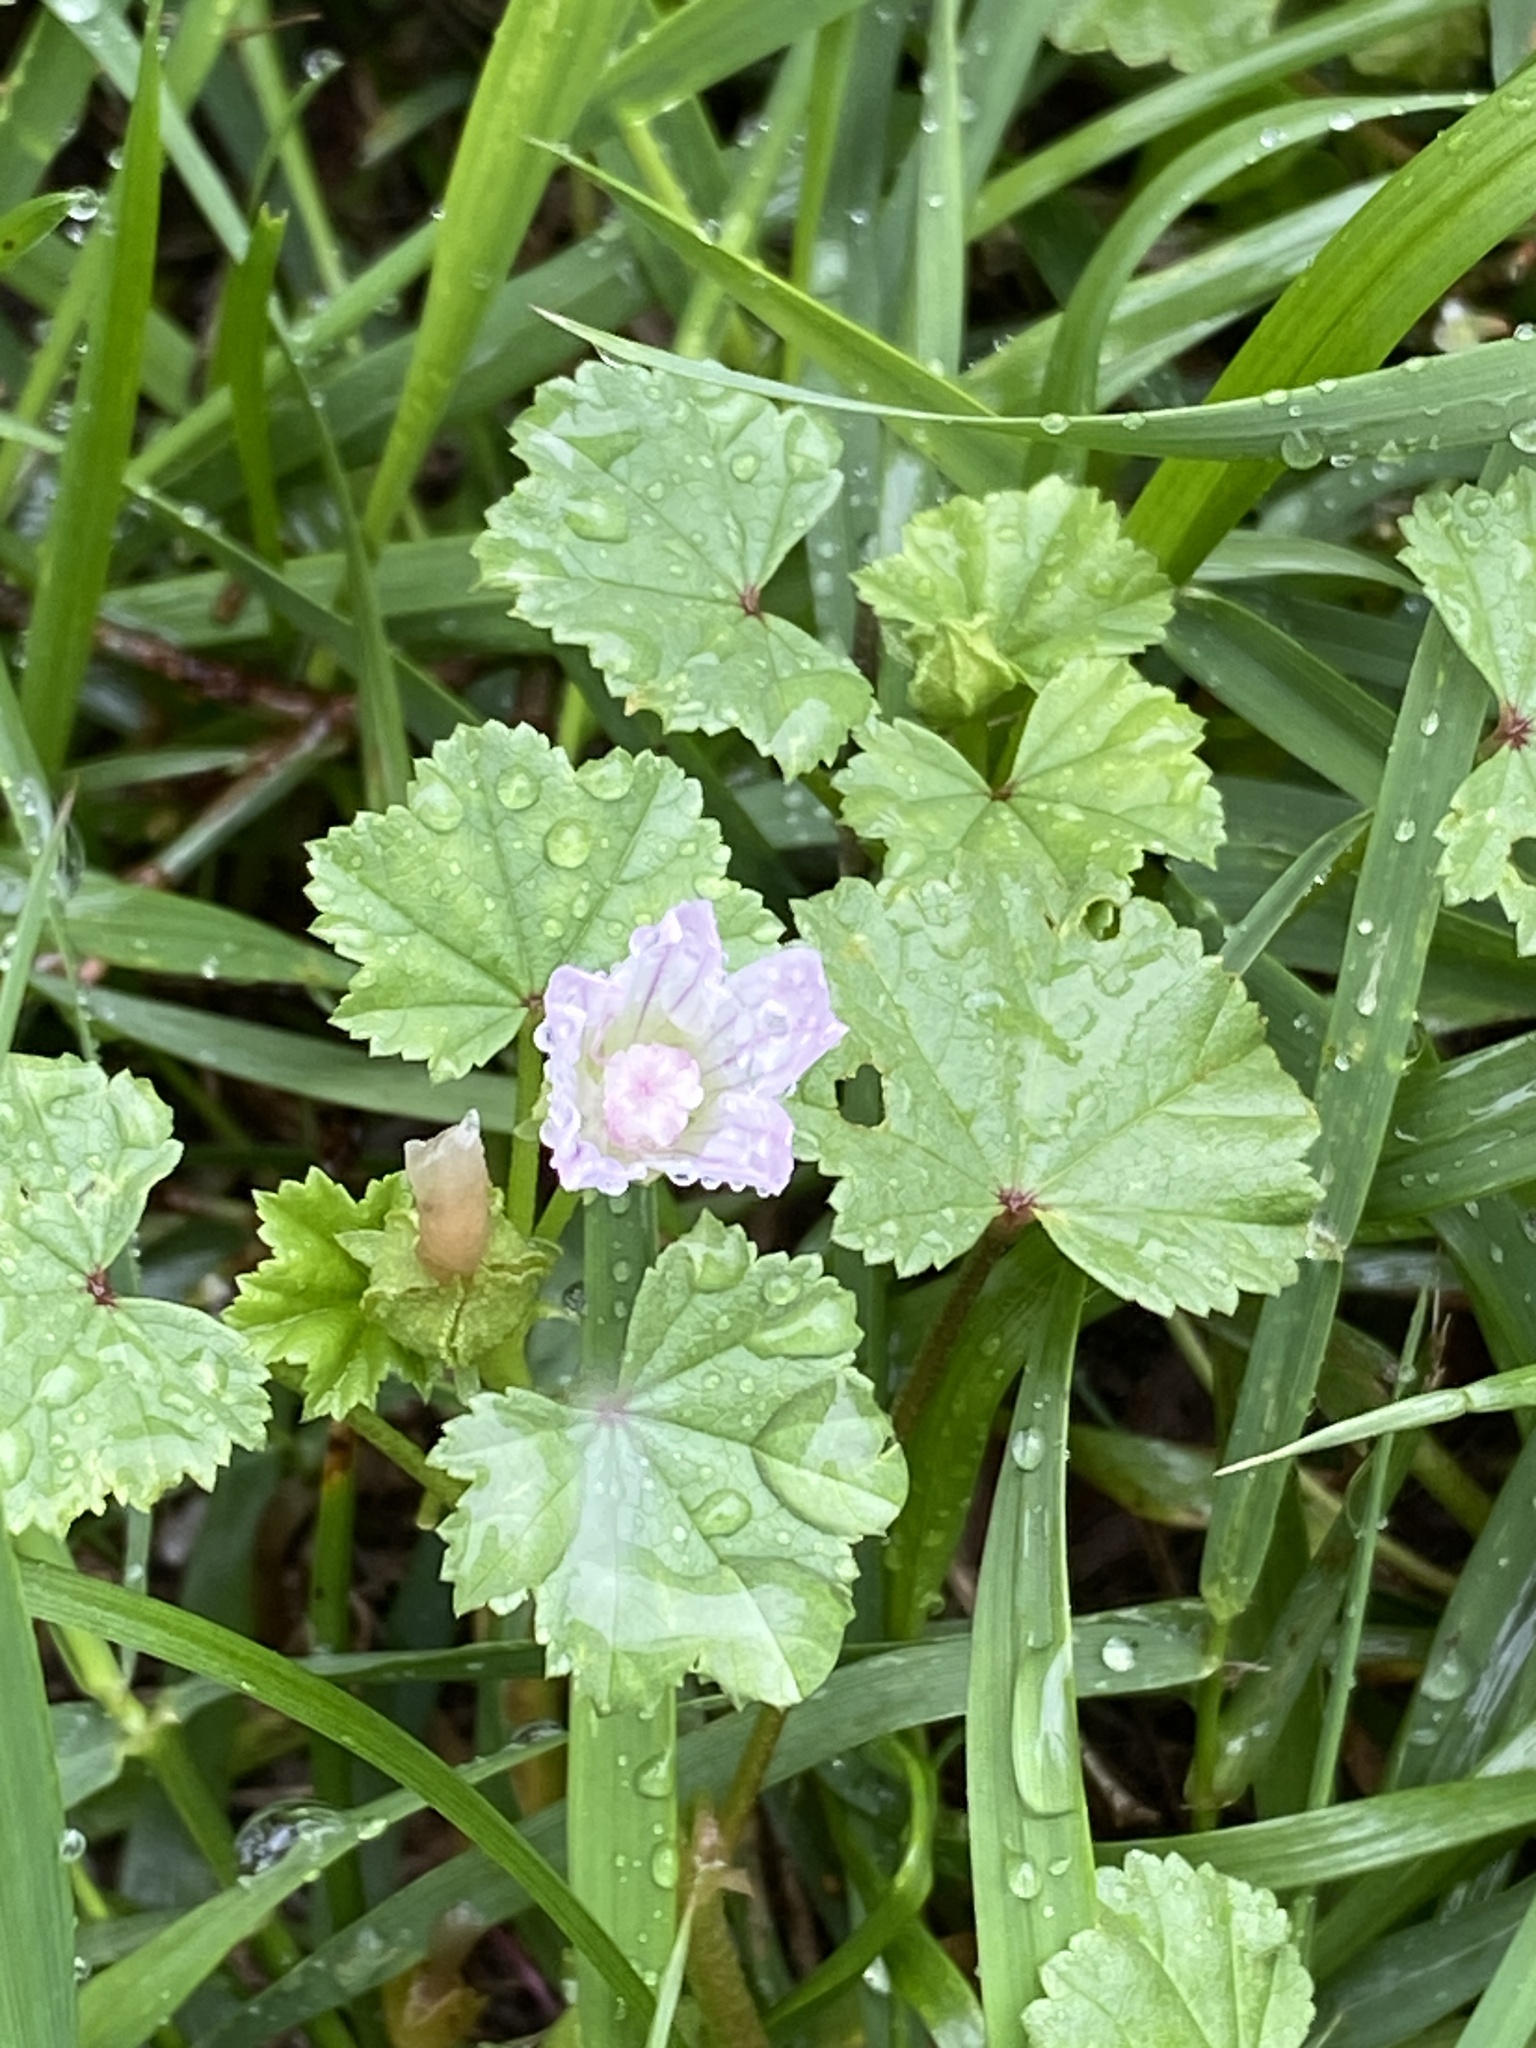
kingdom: Plantae
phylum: Tracheophyta
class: Magnoliopsida
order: Malvales
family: Malvaceae
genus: Malva
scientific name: Malva neglecta
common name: Common mallow
